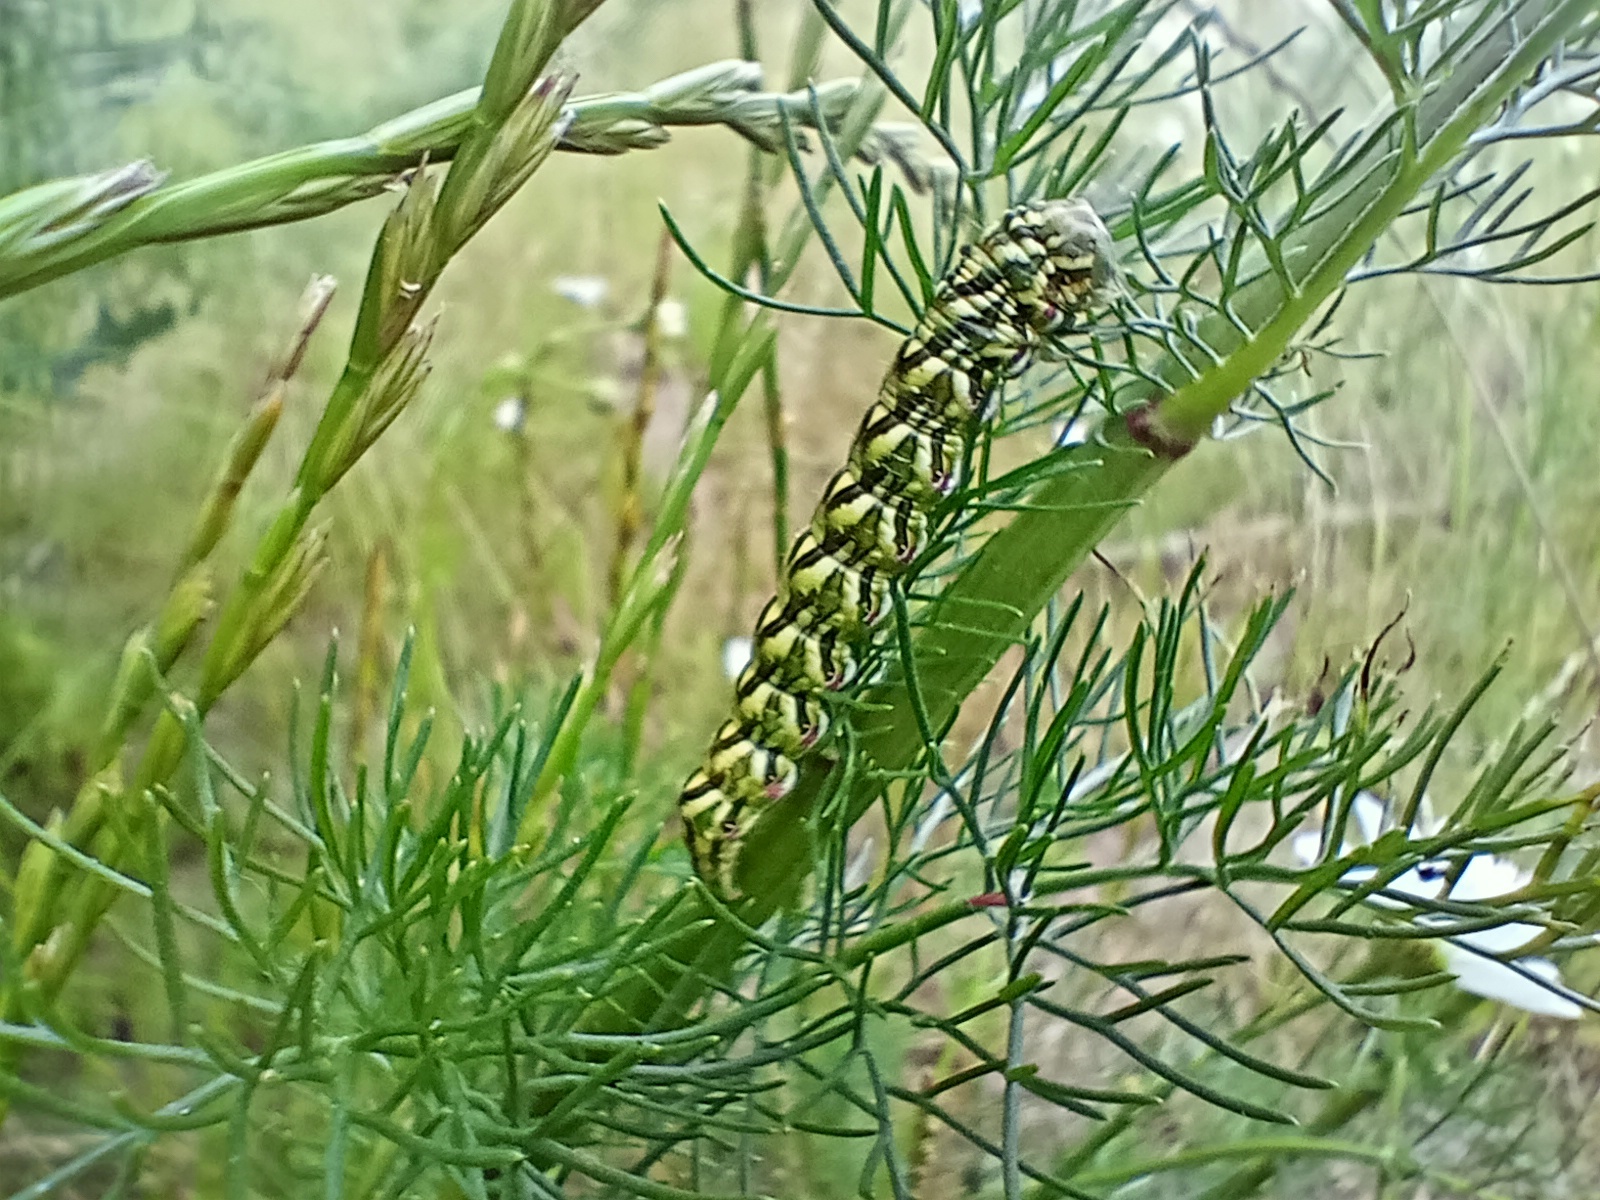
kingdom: Animalia
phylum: Arthropoda
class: Insecta
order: Lepidoptera
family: Noctuidae
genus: Cucullia
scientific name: Cucullia chamomillae
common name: Chamomile shark
